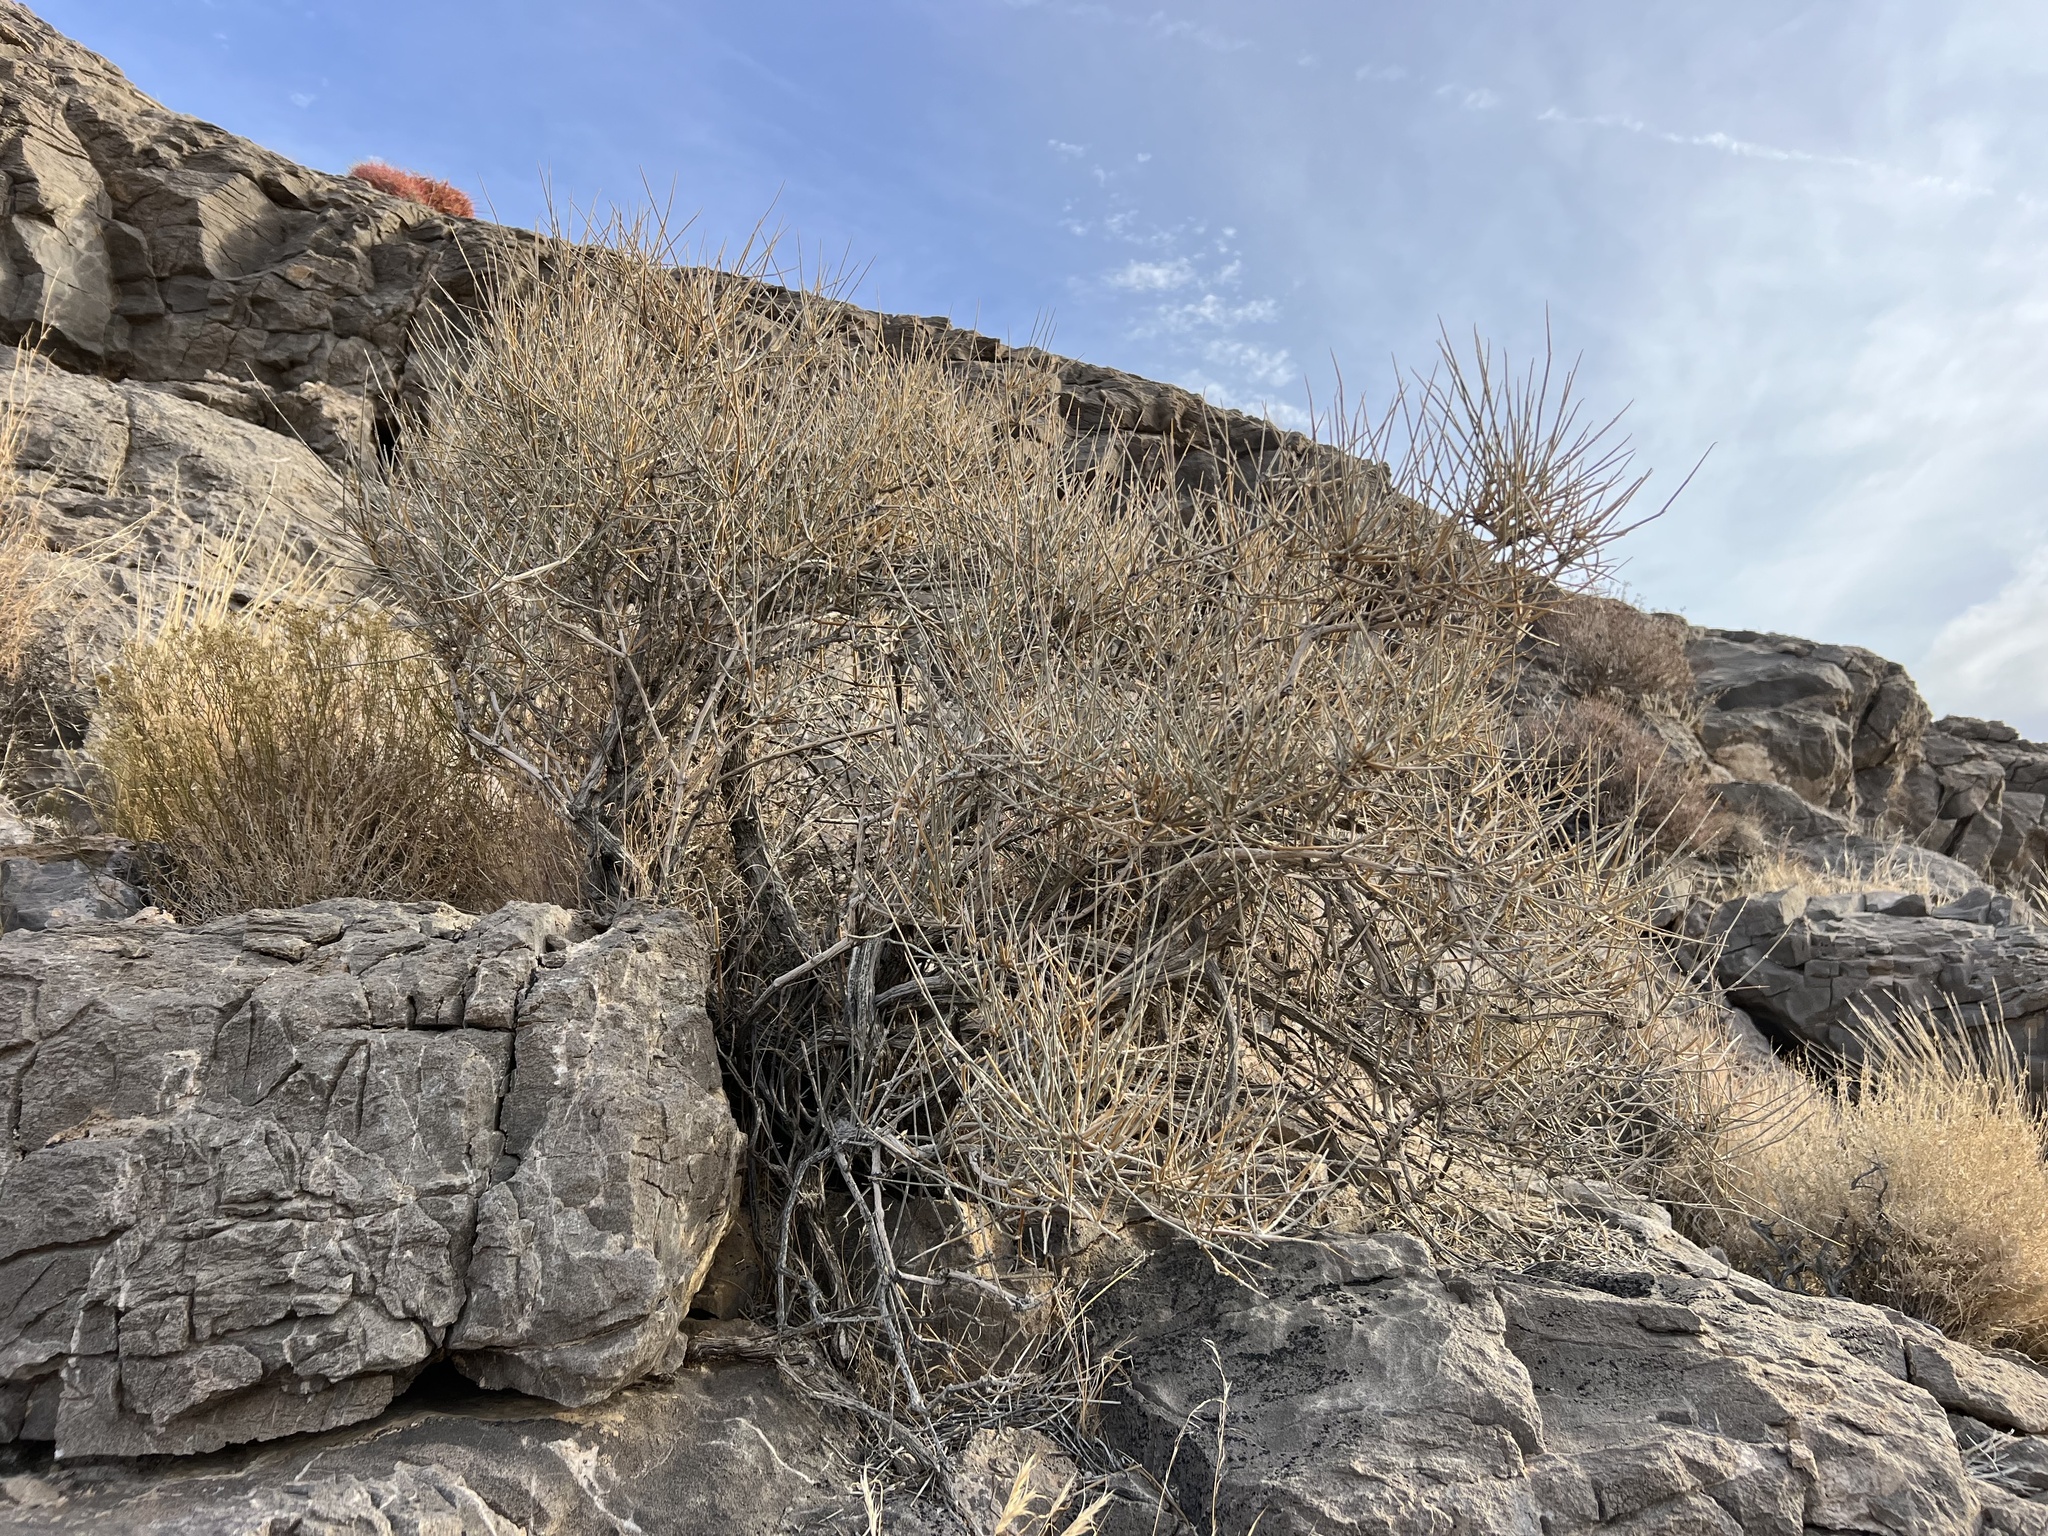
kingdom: Plantae
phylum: Tracheophyta
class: Gnetopsida
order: Ephedrales
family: Ephedraceae
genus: Ephedra
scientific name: Ephedra nevadensis
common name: Gray ephedra
